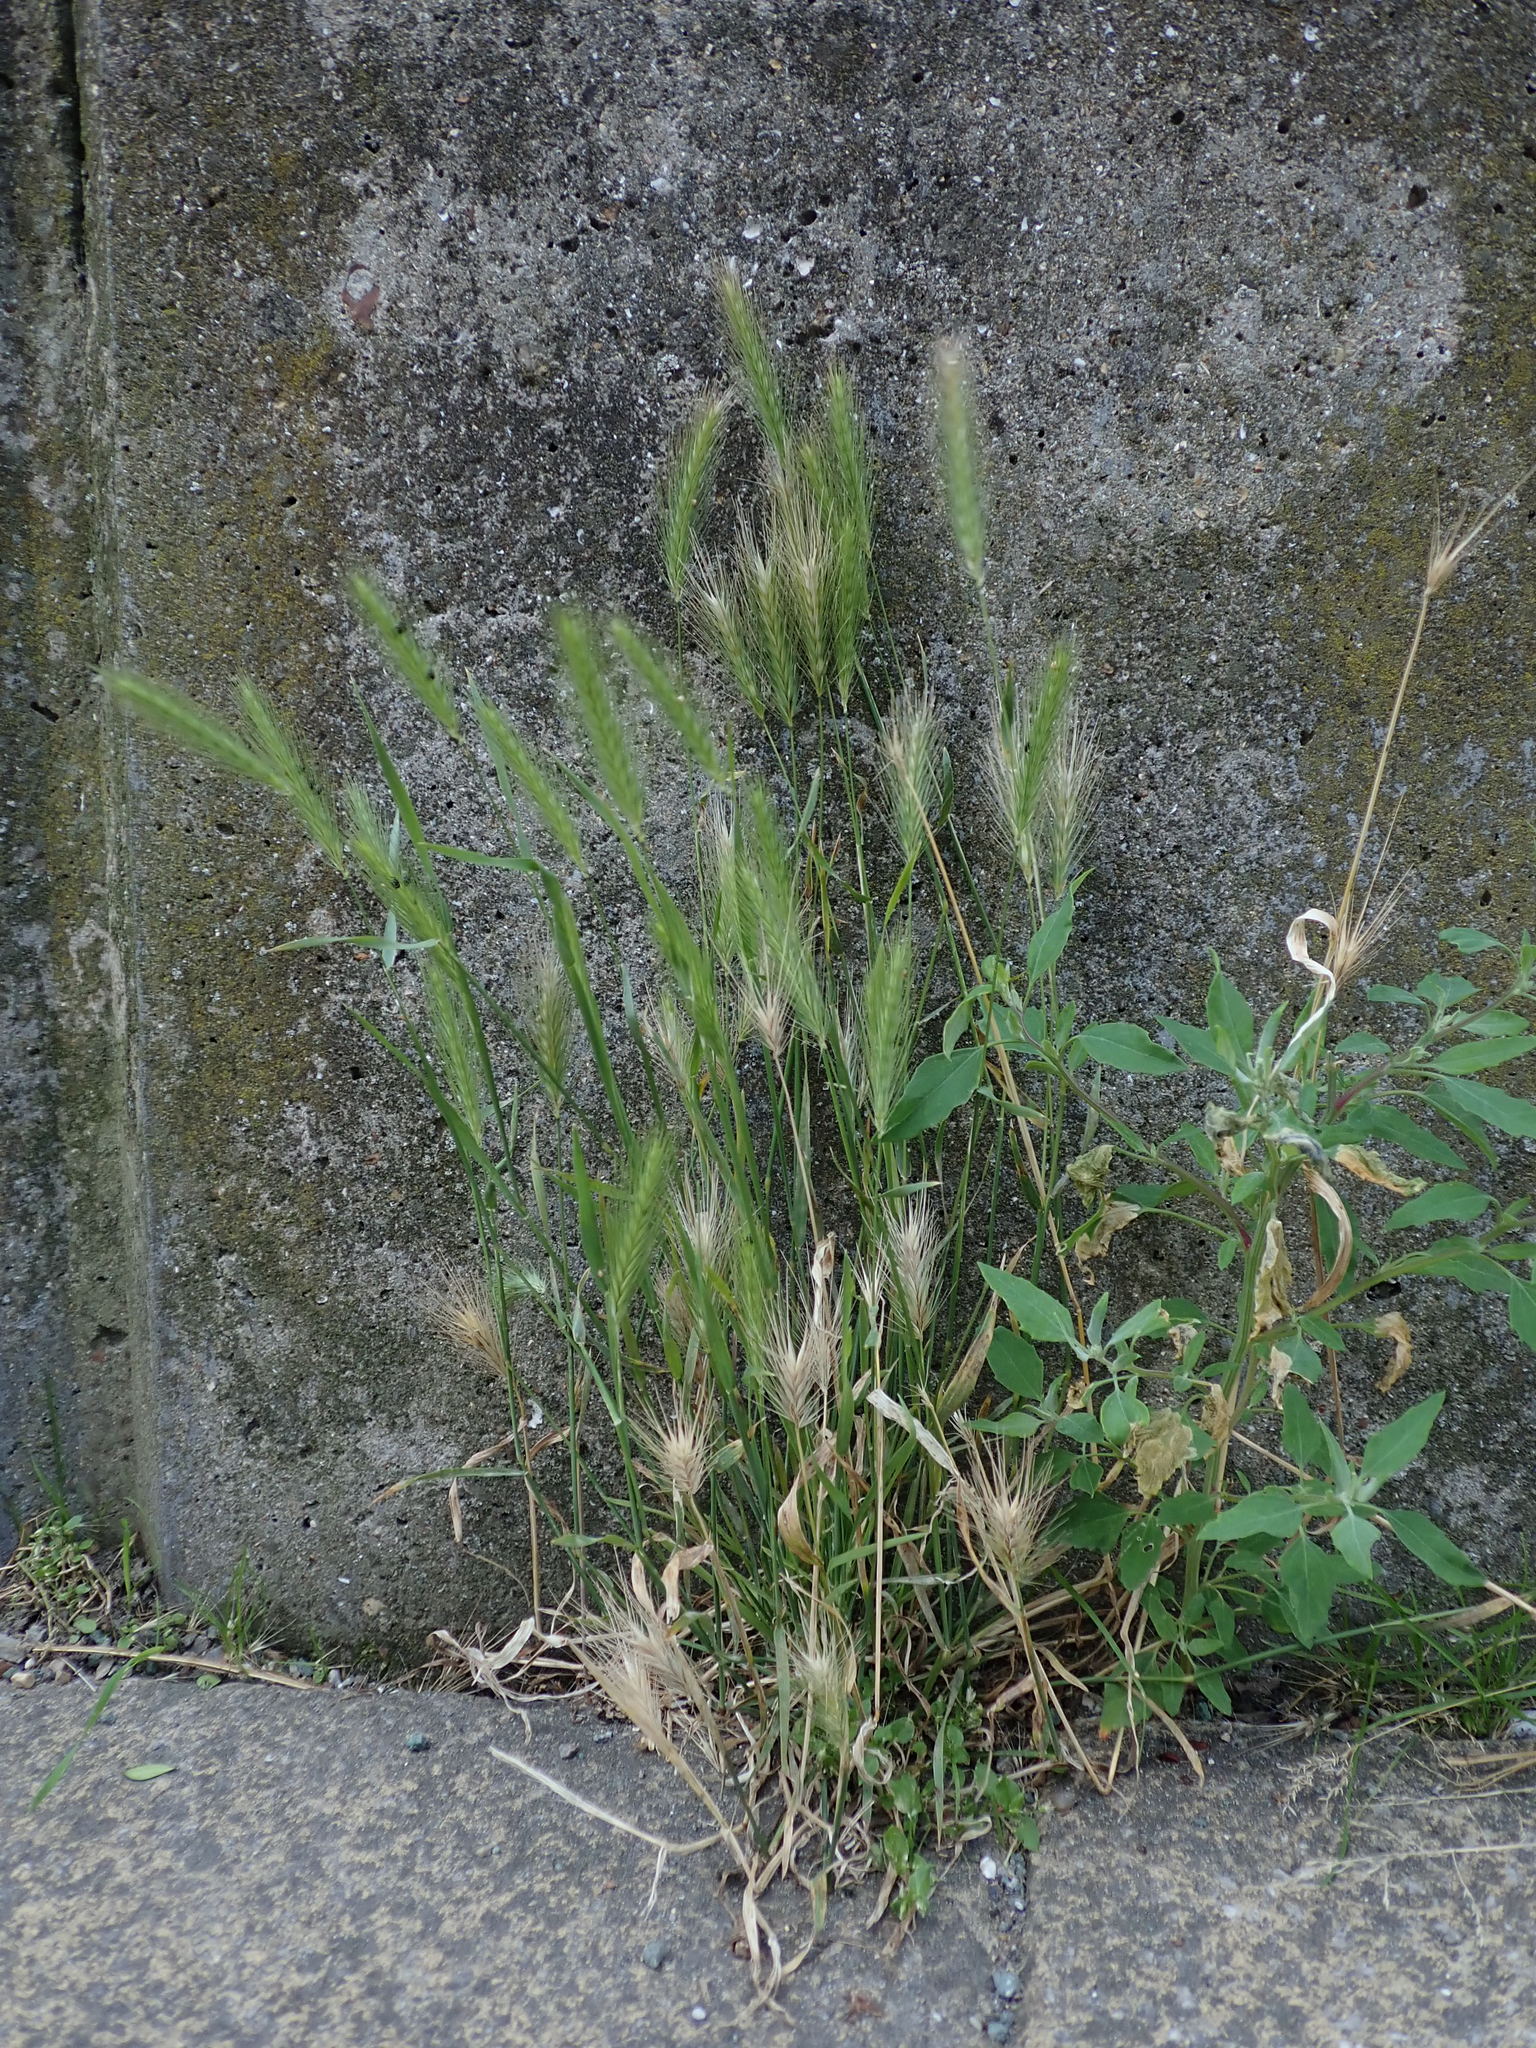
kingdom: Plantae
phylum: Tracheophyta
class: Liliopsida
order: Poales
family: Poaceae
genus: Hordeum
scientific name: Hordeum murinum
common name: Wall barley
